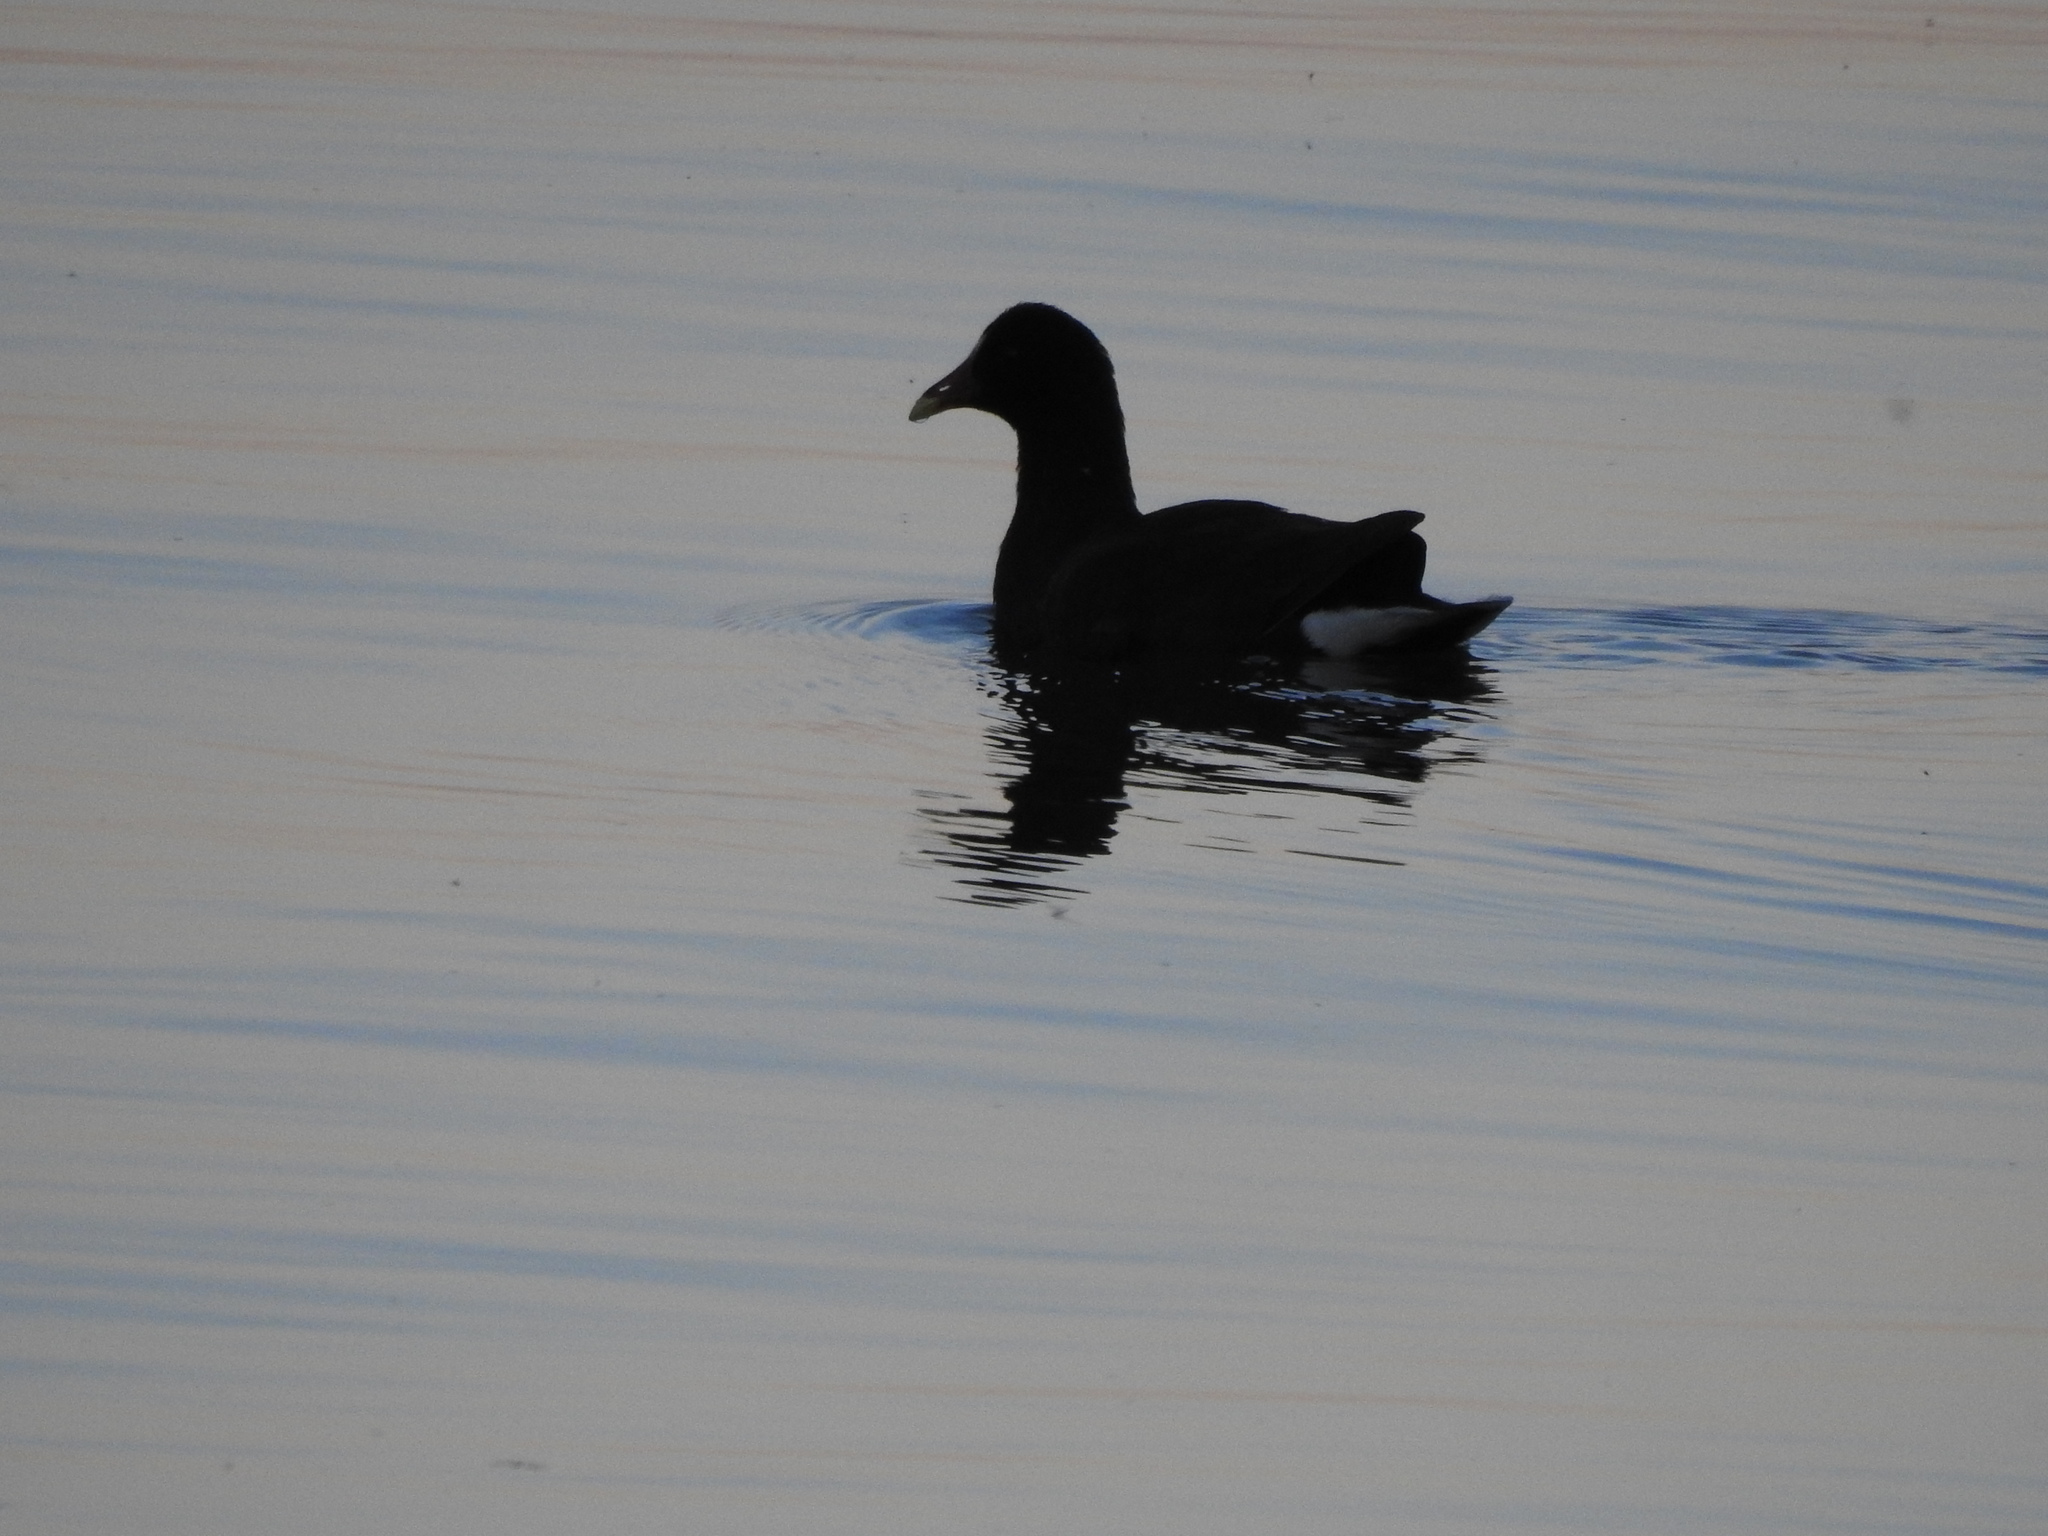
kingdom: Animalia
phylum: Chordata
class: Aves
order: Gruiformes
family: Rallidae
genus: Gallinula
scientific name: Gallinula chloropus
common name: Common moorhen
